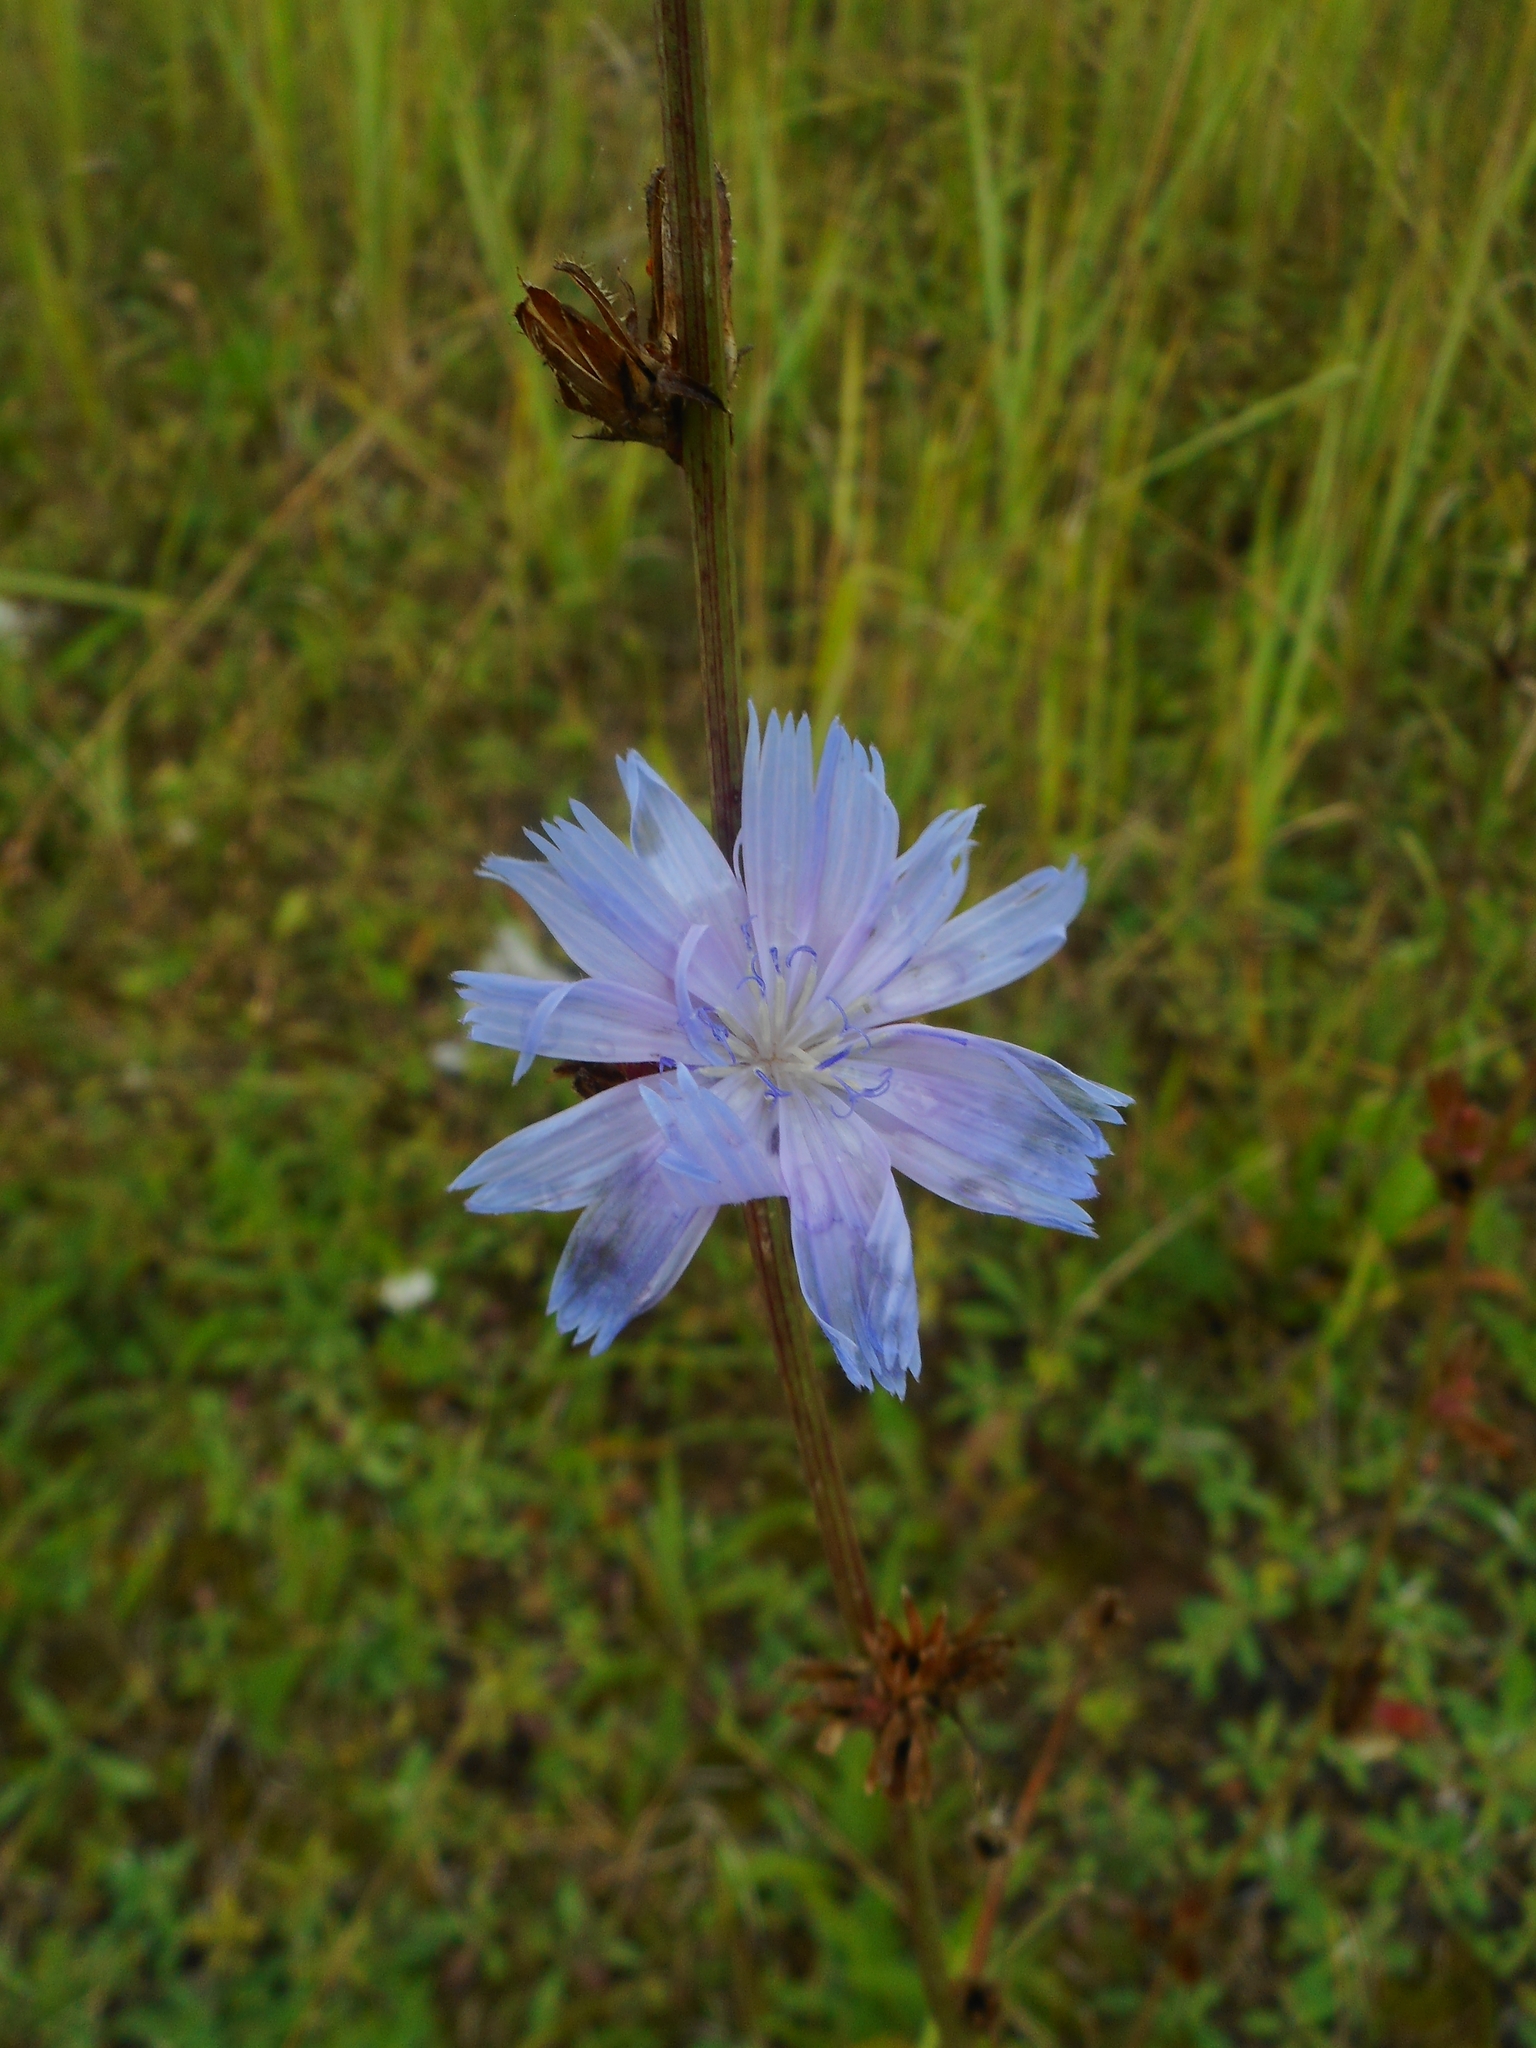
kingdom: Plantae
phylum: Tracheophyta
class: Magnoliopsida
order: Asterales
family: Asteraceae
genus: Cichorium
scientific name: Cichorium intybus
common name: Chicory
